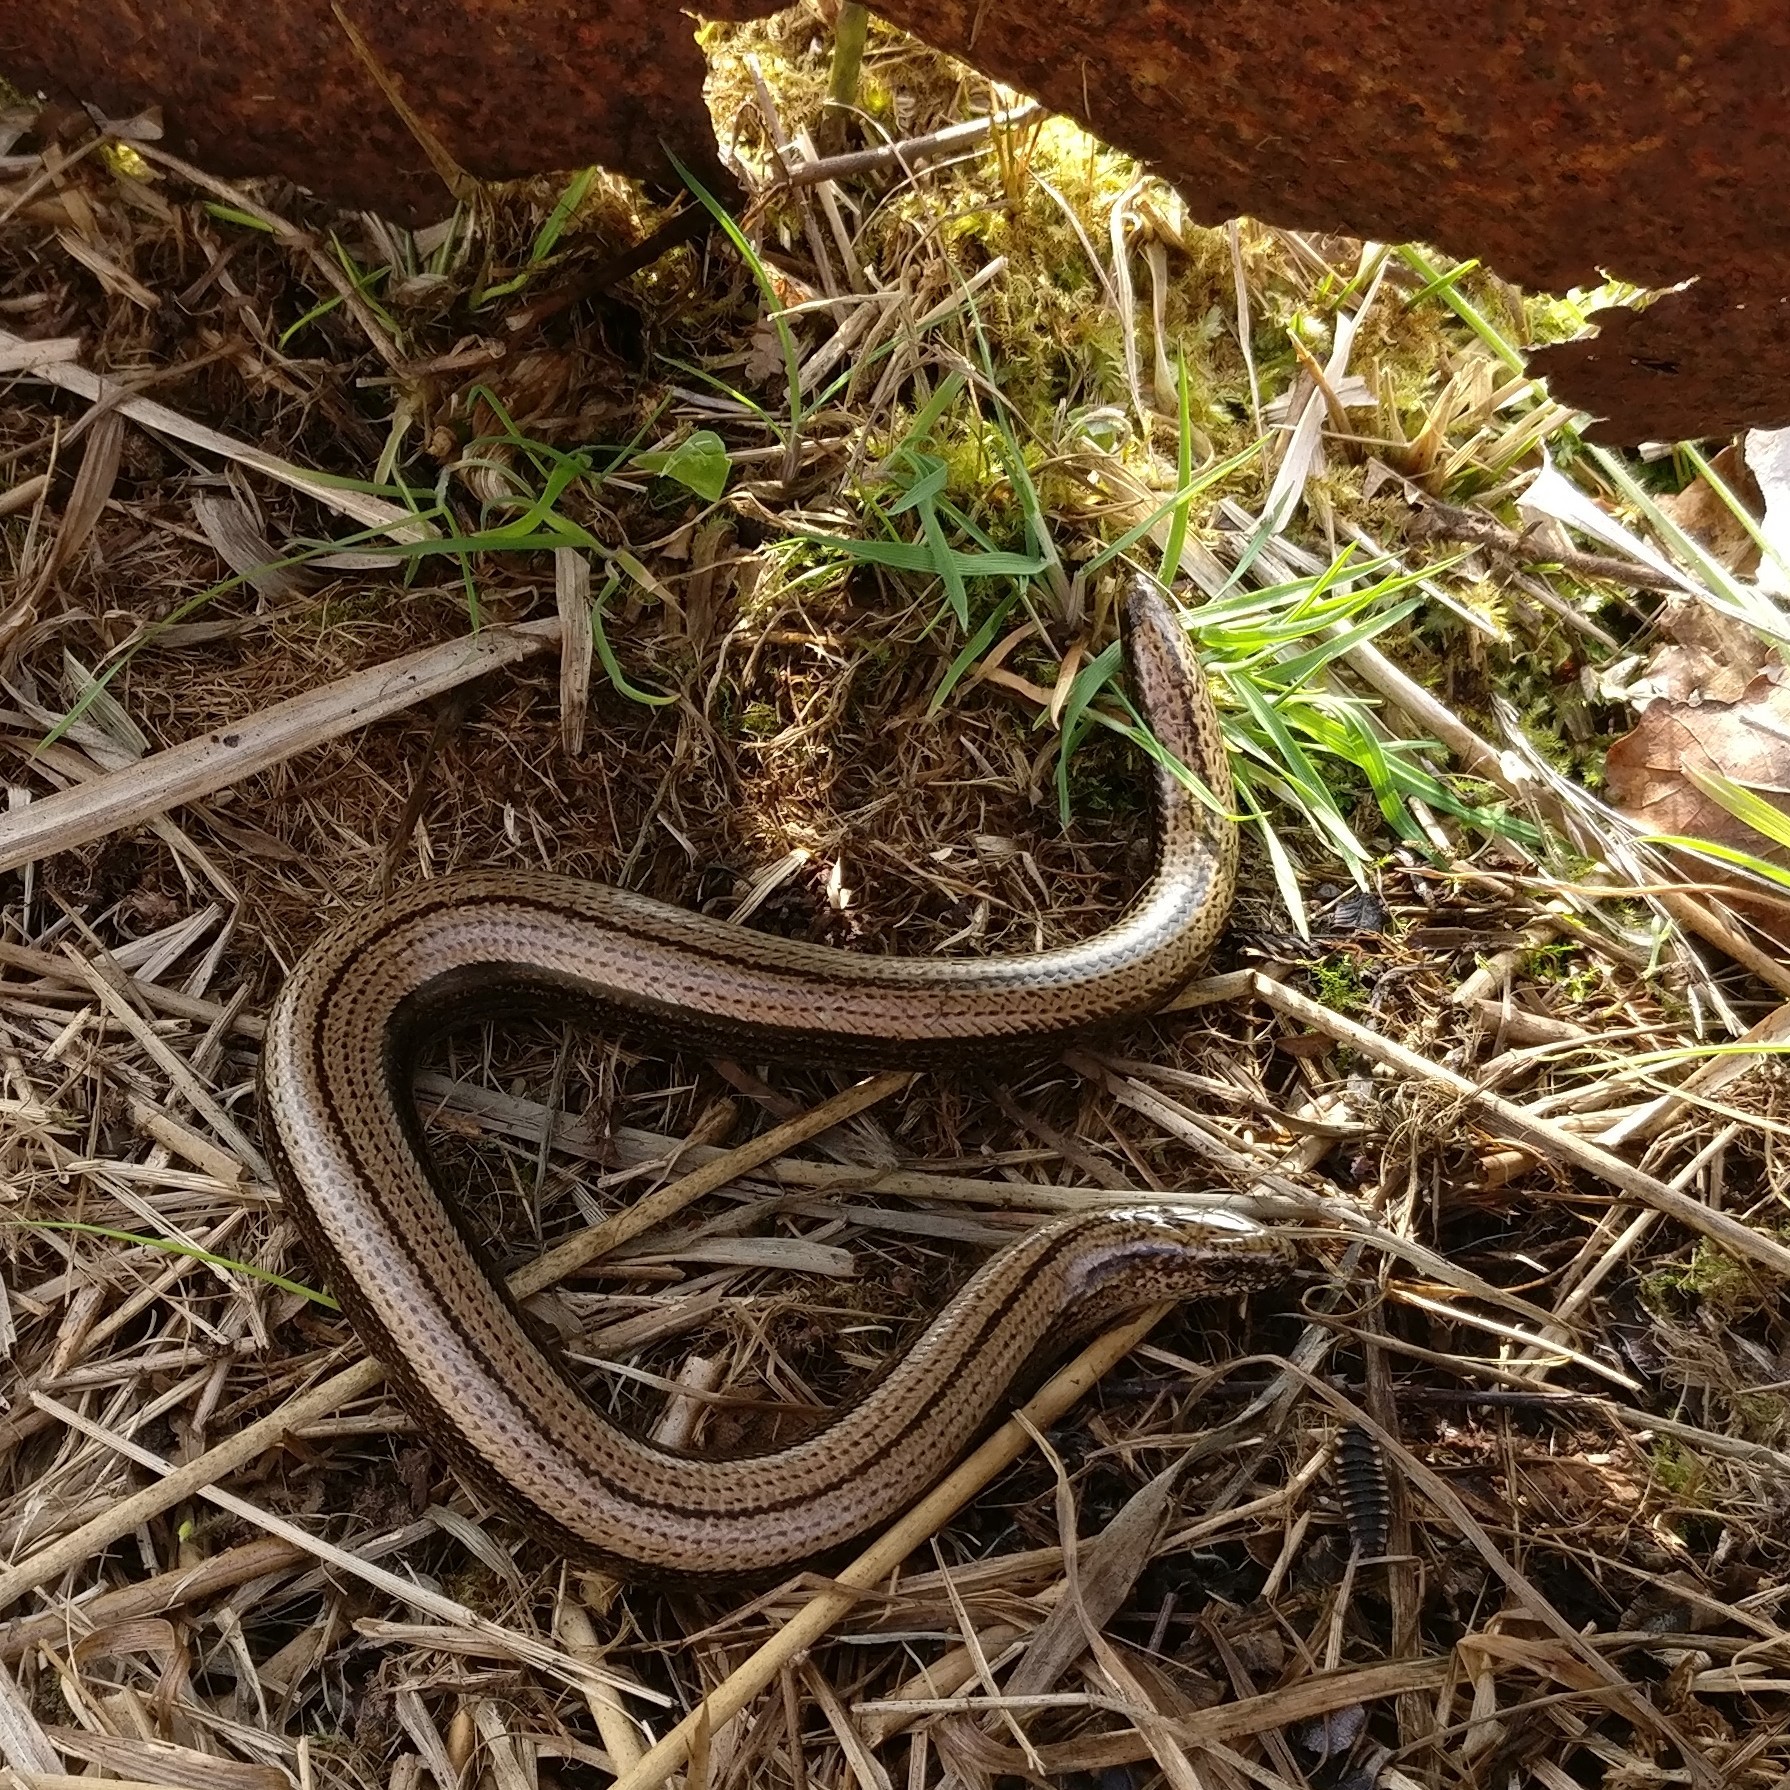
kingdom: Animalia
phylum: Chordata
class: Squamata
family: Anguidae
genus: Anguis
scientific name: Anguis fragilis
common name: Slow worm
